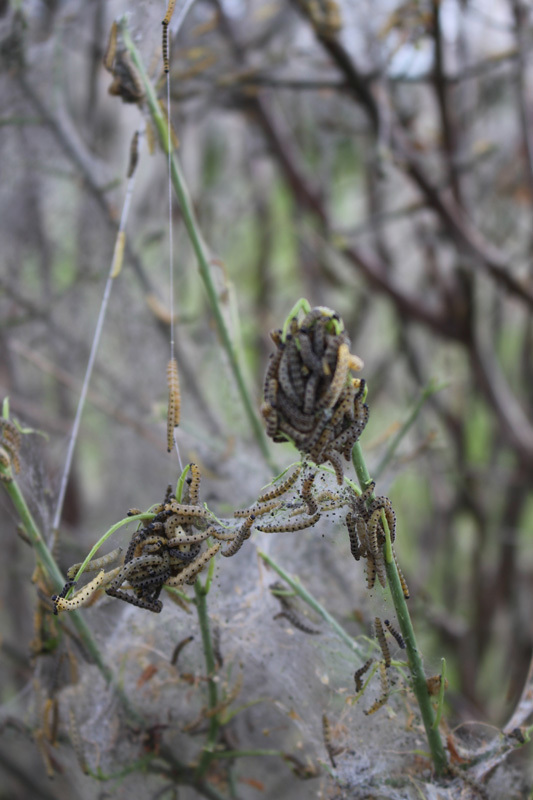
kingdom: Animalia
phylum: Arthropoda
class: Insecta
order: Lepidoptera
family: Yponomeutidae
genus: Yponomeuta
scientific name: Yponomeuta cagnagellus
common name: Spindle ermine
